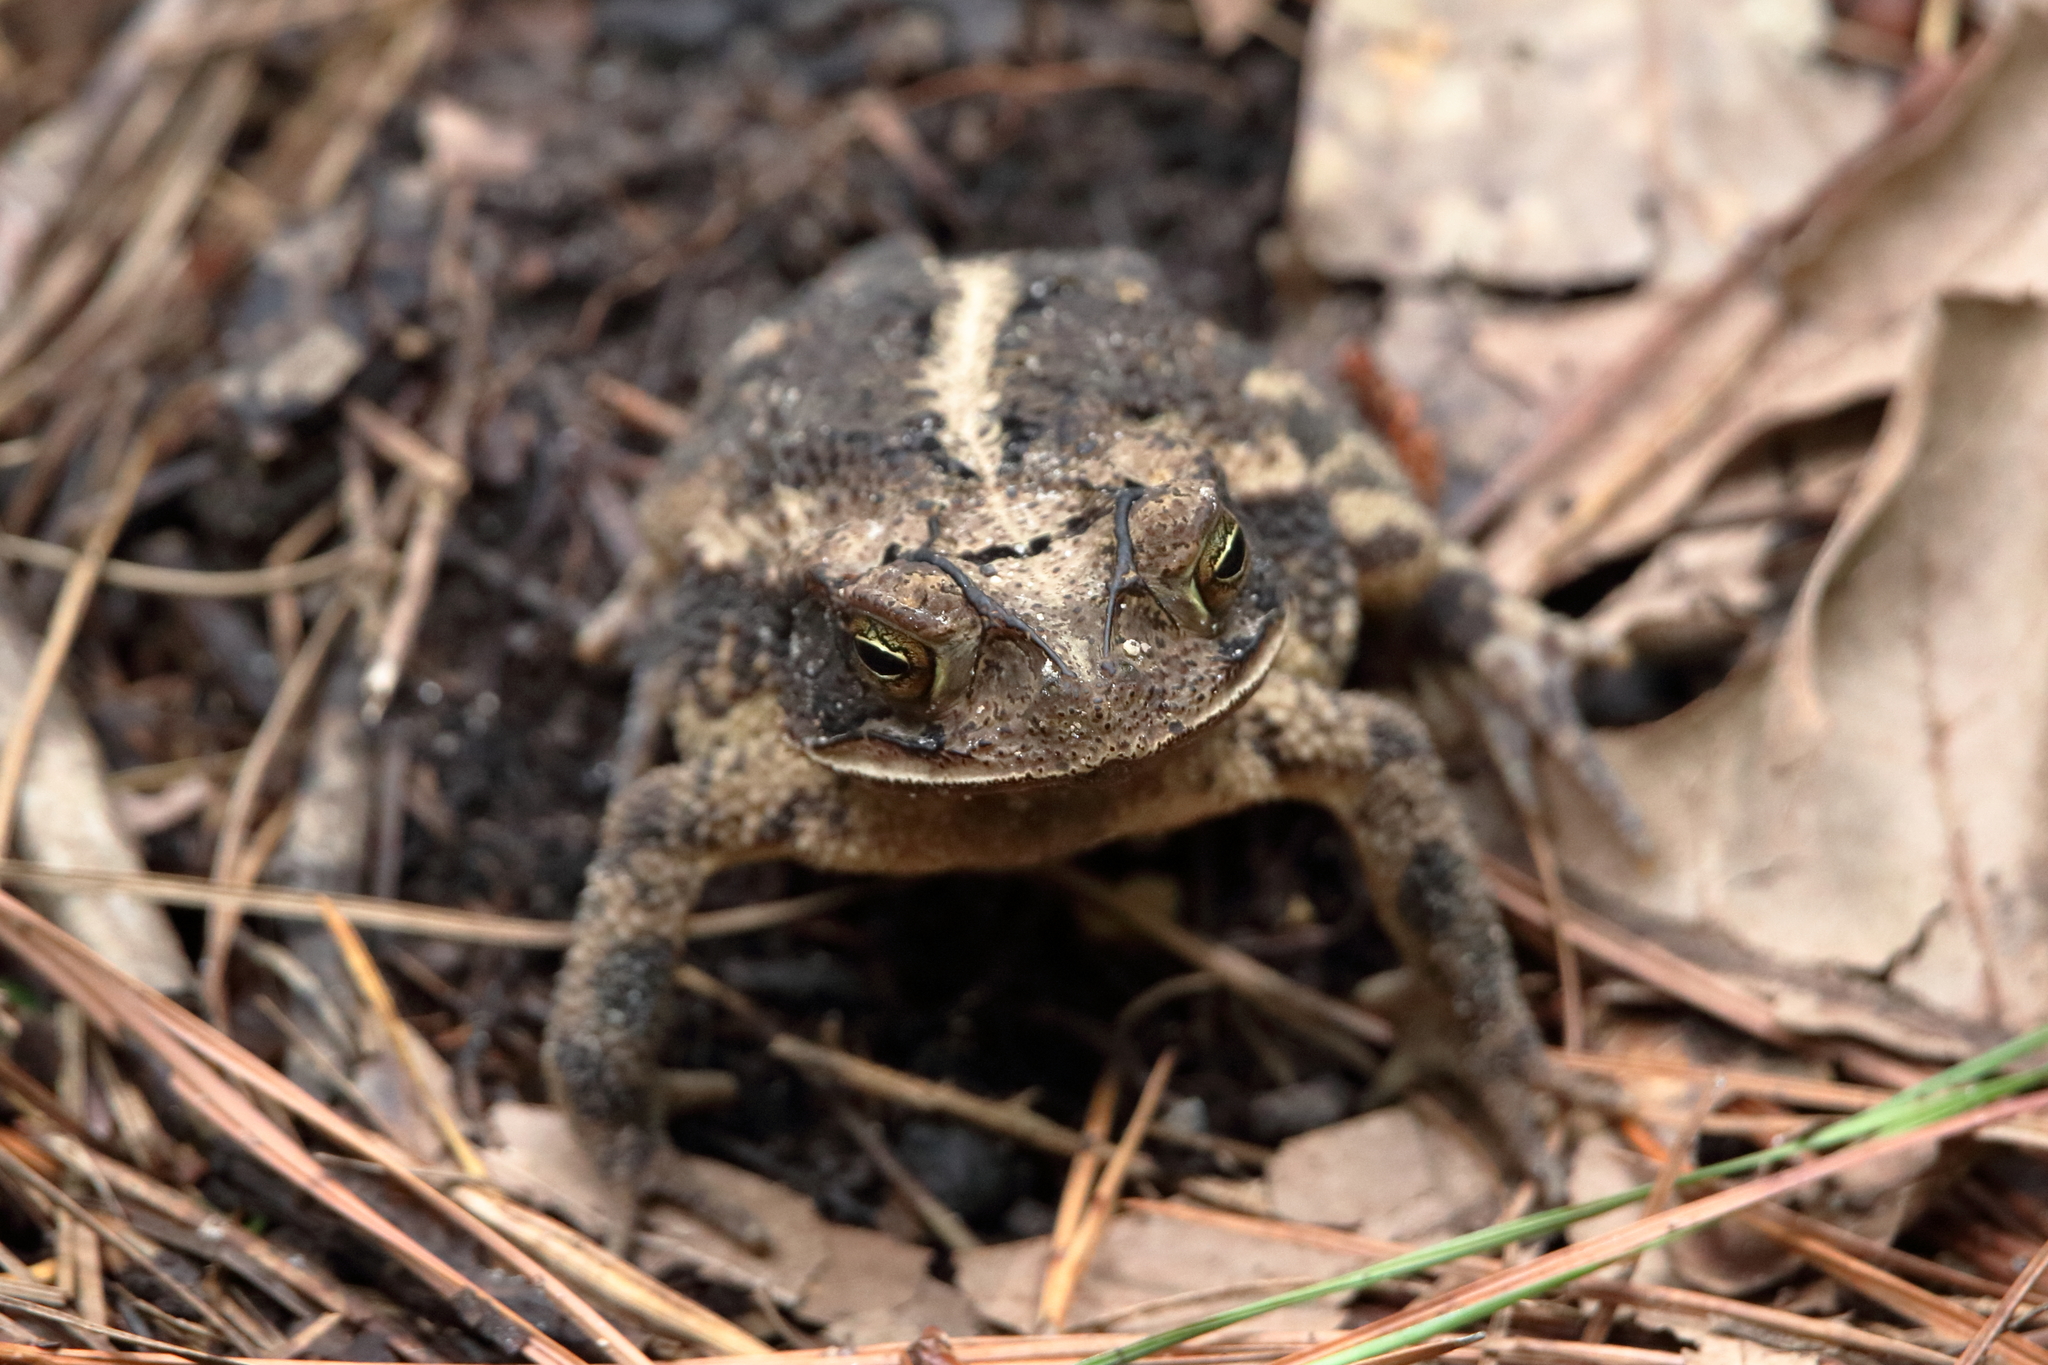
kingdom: Animalia
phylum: Chordata
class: Amphibia
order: Anura
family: Bufonidae
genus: Incilius
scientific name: Incilius nebulifer
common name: Gulf coast toad
